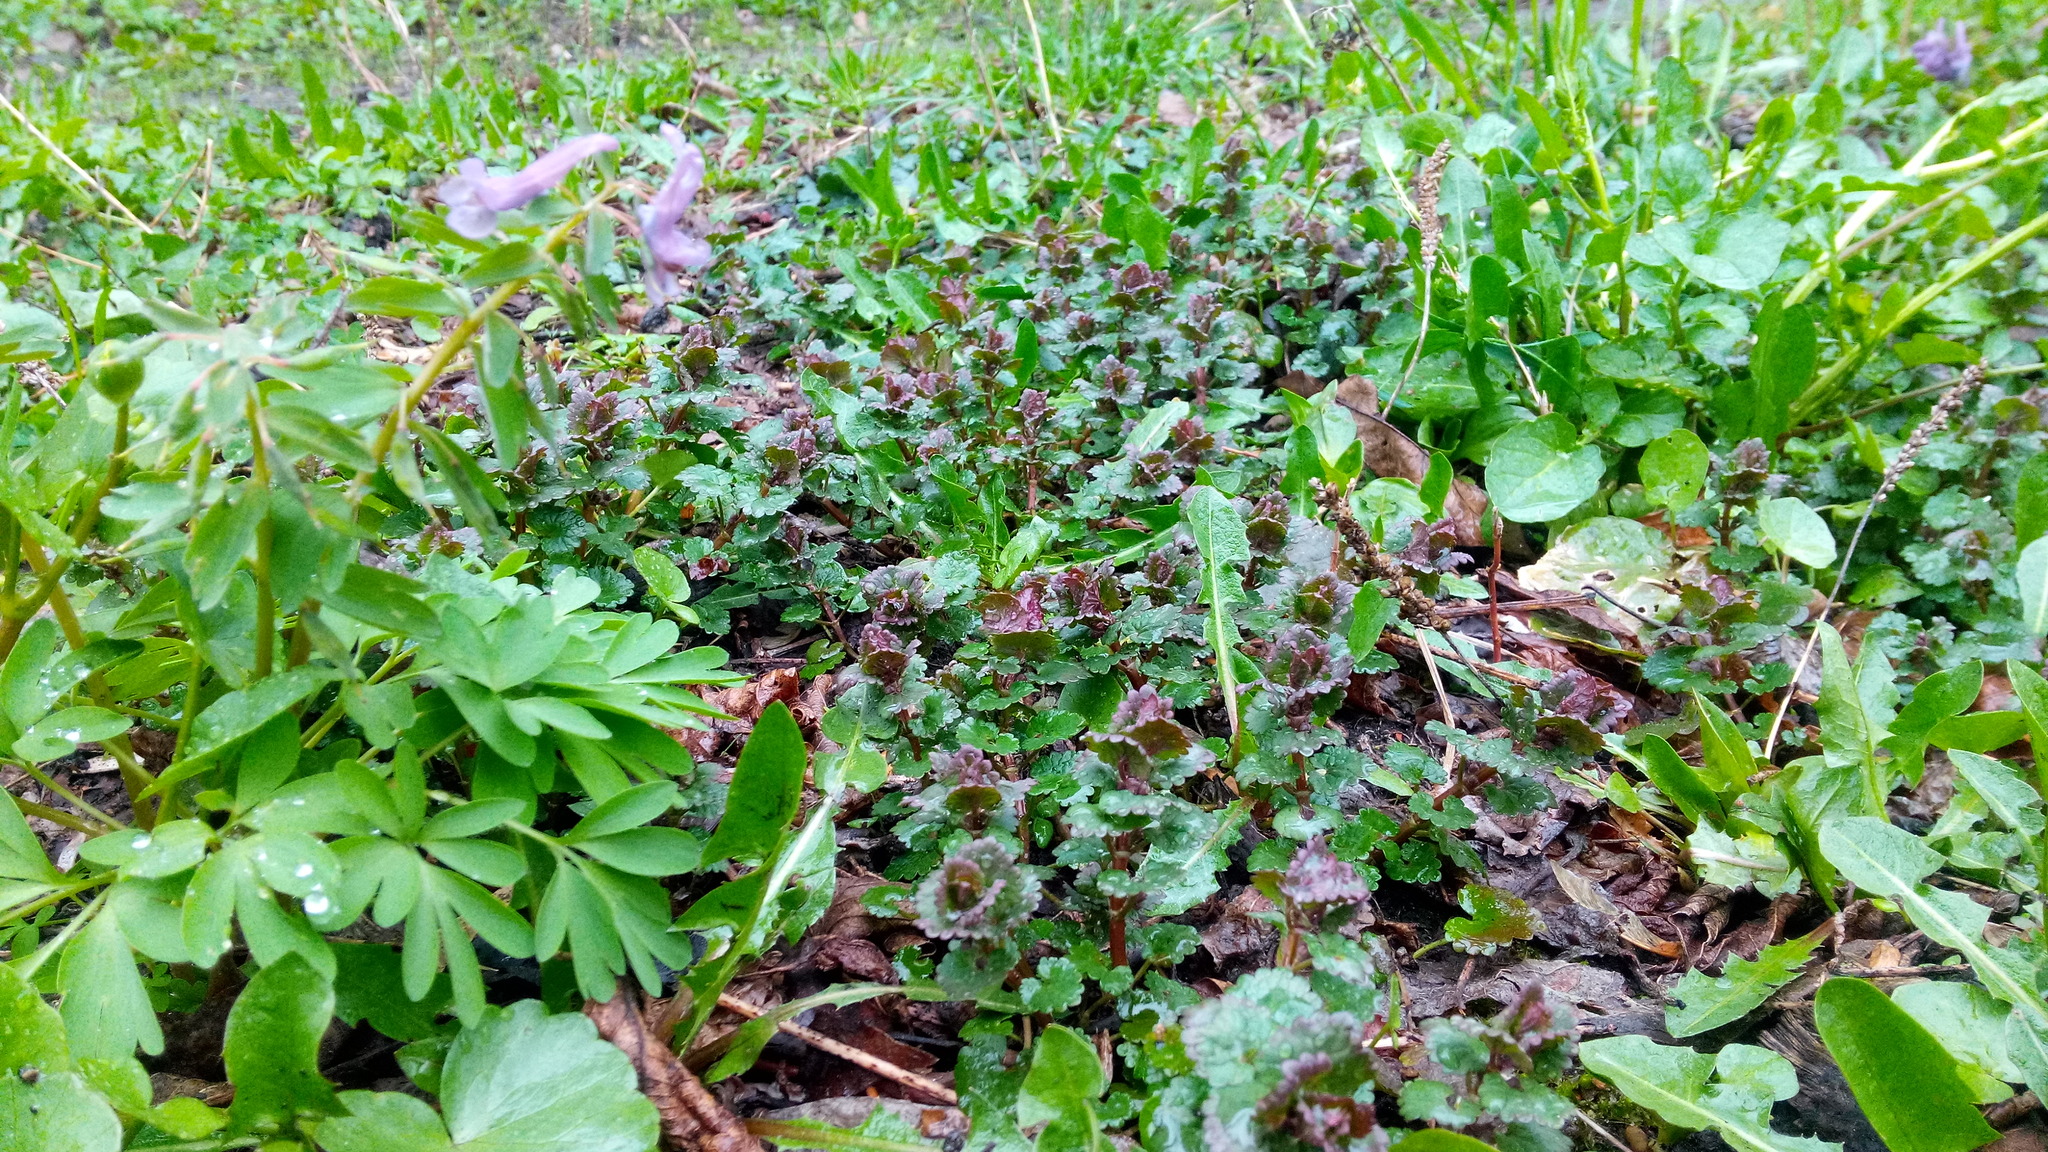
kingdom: Plantae
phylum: Tracheophyta
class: Magnoliopsida
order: Lamiales
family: Lamiaceae
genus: Glechoma
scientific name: Glechoma hederacea
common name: Ground ivy
